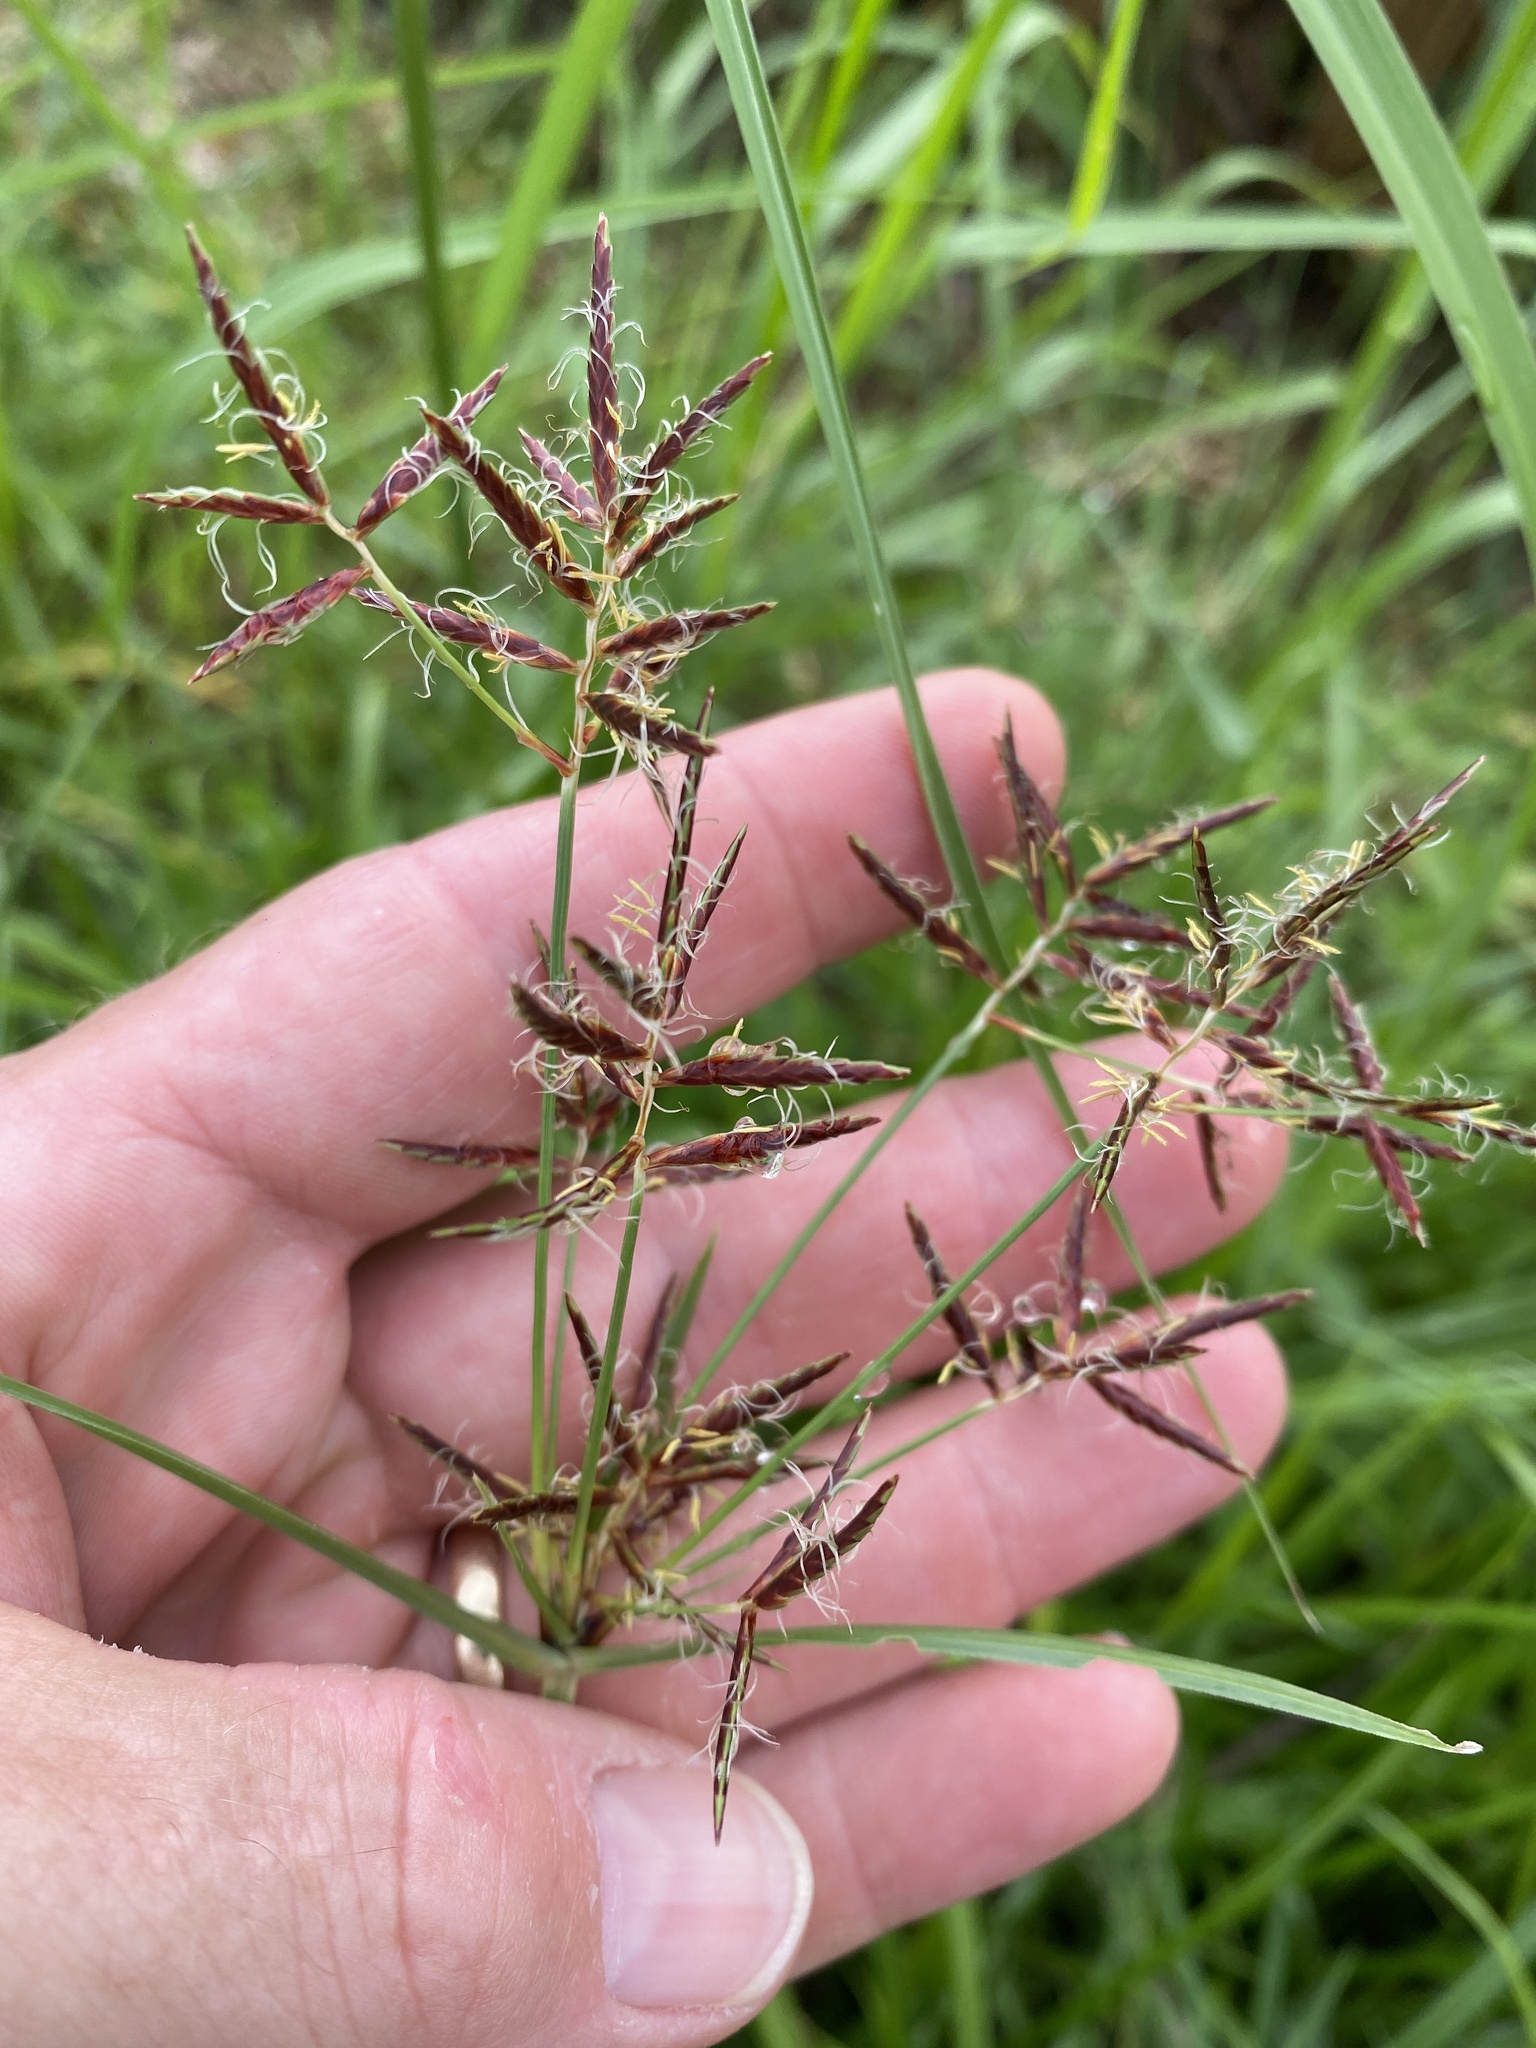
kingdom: Plantae
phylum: Tracheophyta
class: Liliopsida
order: Poales
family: Cyperaceae
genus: Cyperus
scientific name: Cyperus rotundus
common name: Nutgrass
